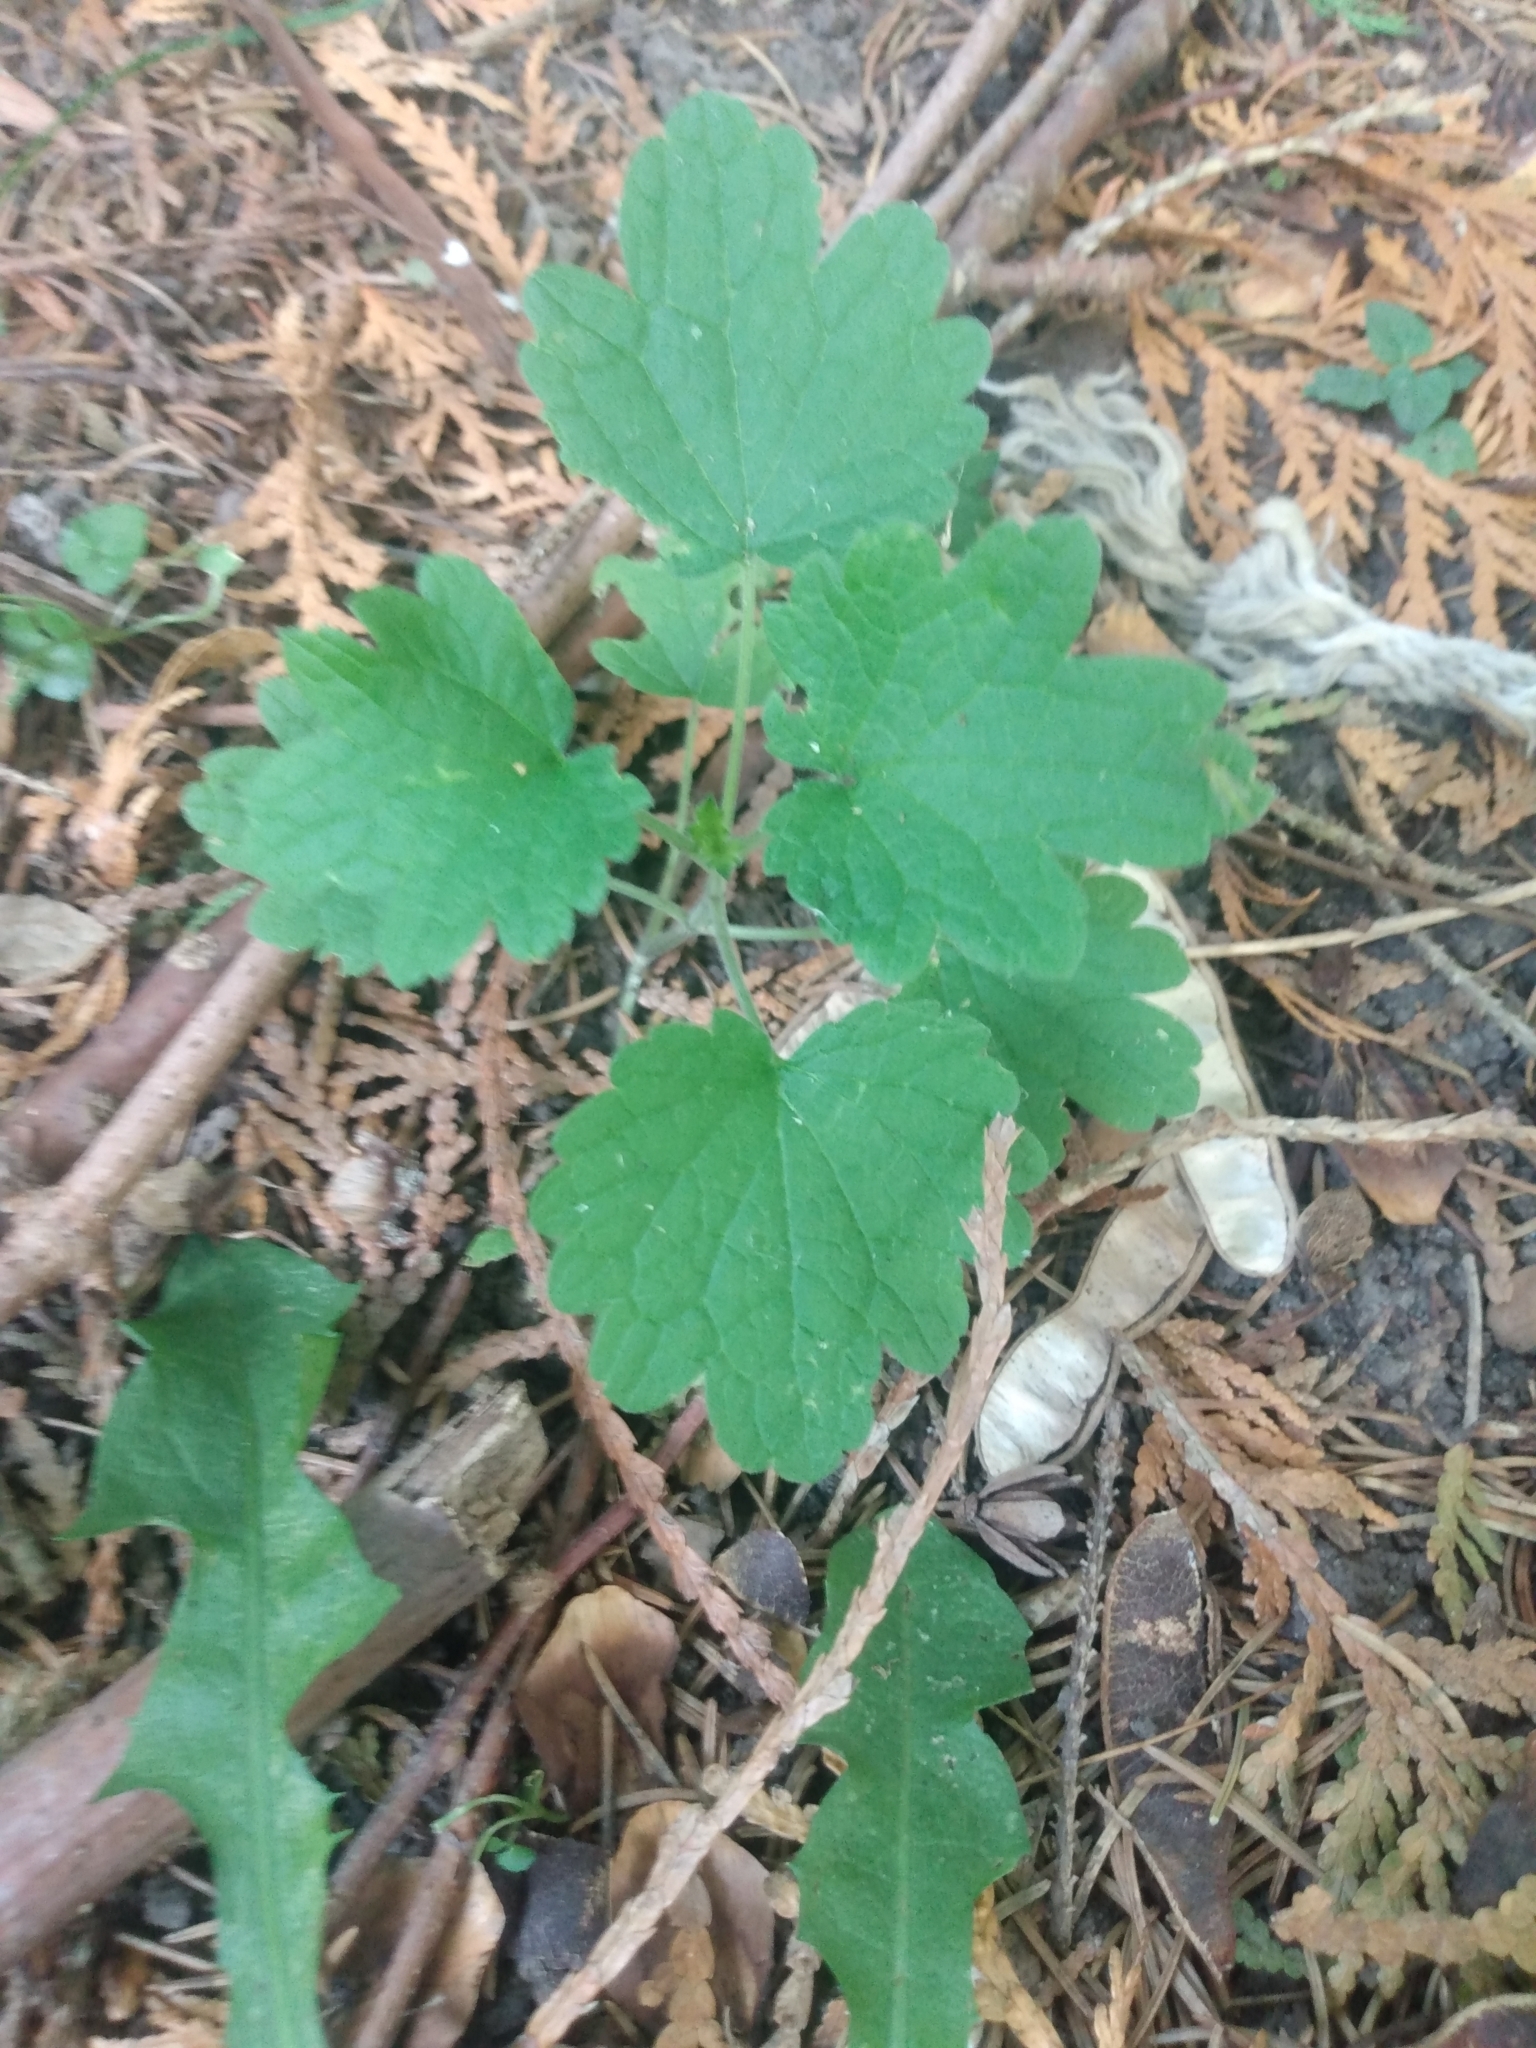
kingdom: Plantae
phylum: Tracheophyta
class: Magnoliopsida
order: Lamiales
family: Lamiaceae
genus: Leonurus
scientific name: Leonurus cardiaca
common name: Motherwort
